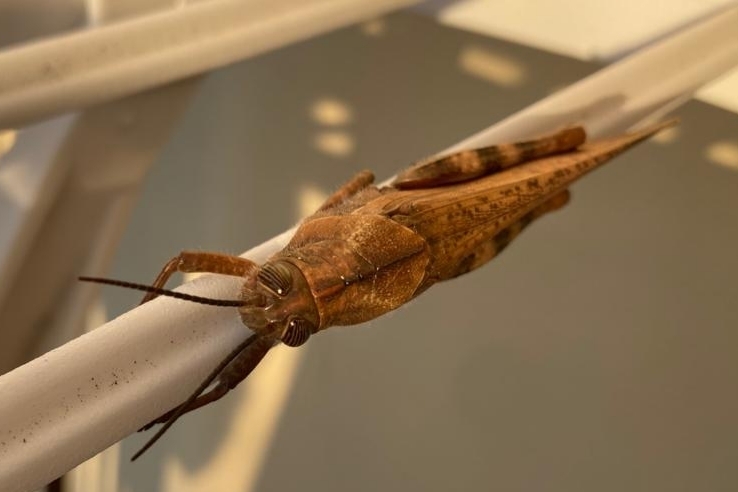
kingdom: Animalia
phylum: Arthropoda
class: Insecta
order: Orthoptera
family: Acrididae
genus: Anacridium
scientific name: Anacridium aegyptium
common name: Egyptian grasshopper
